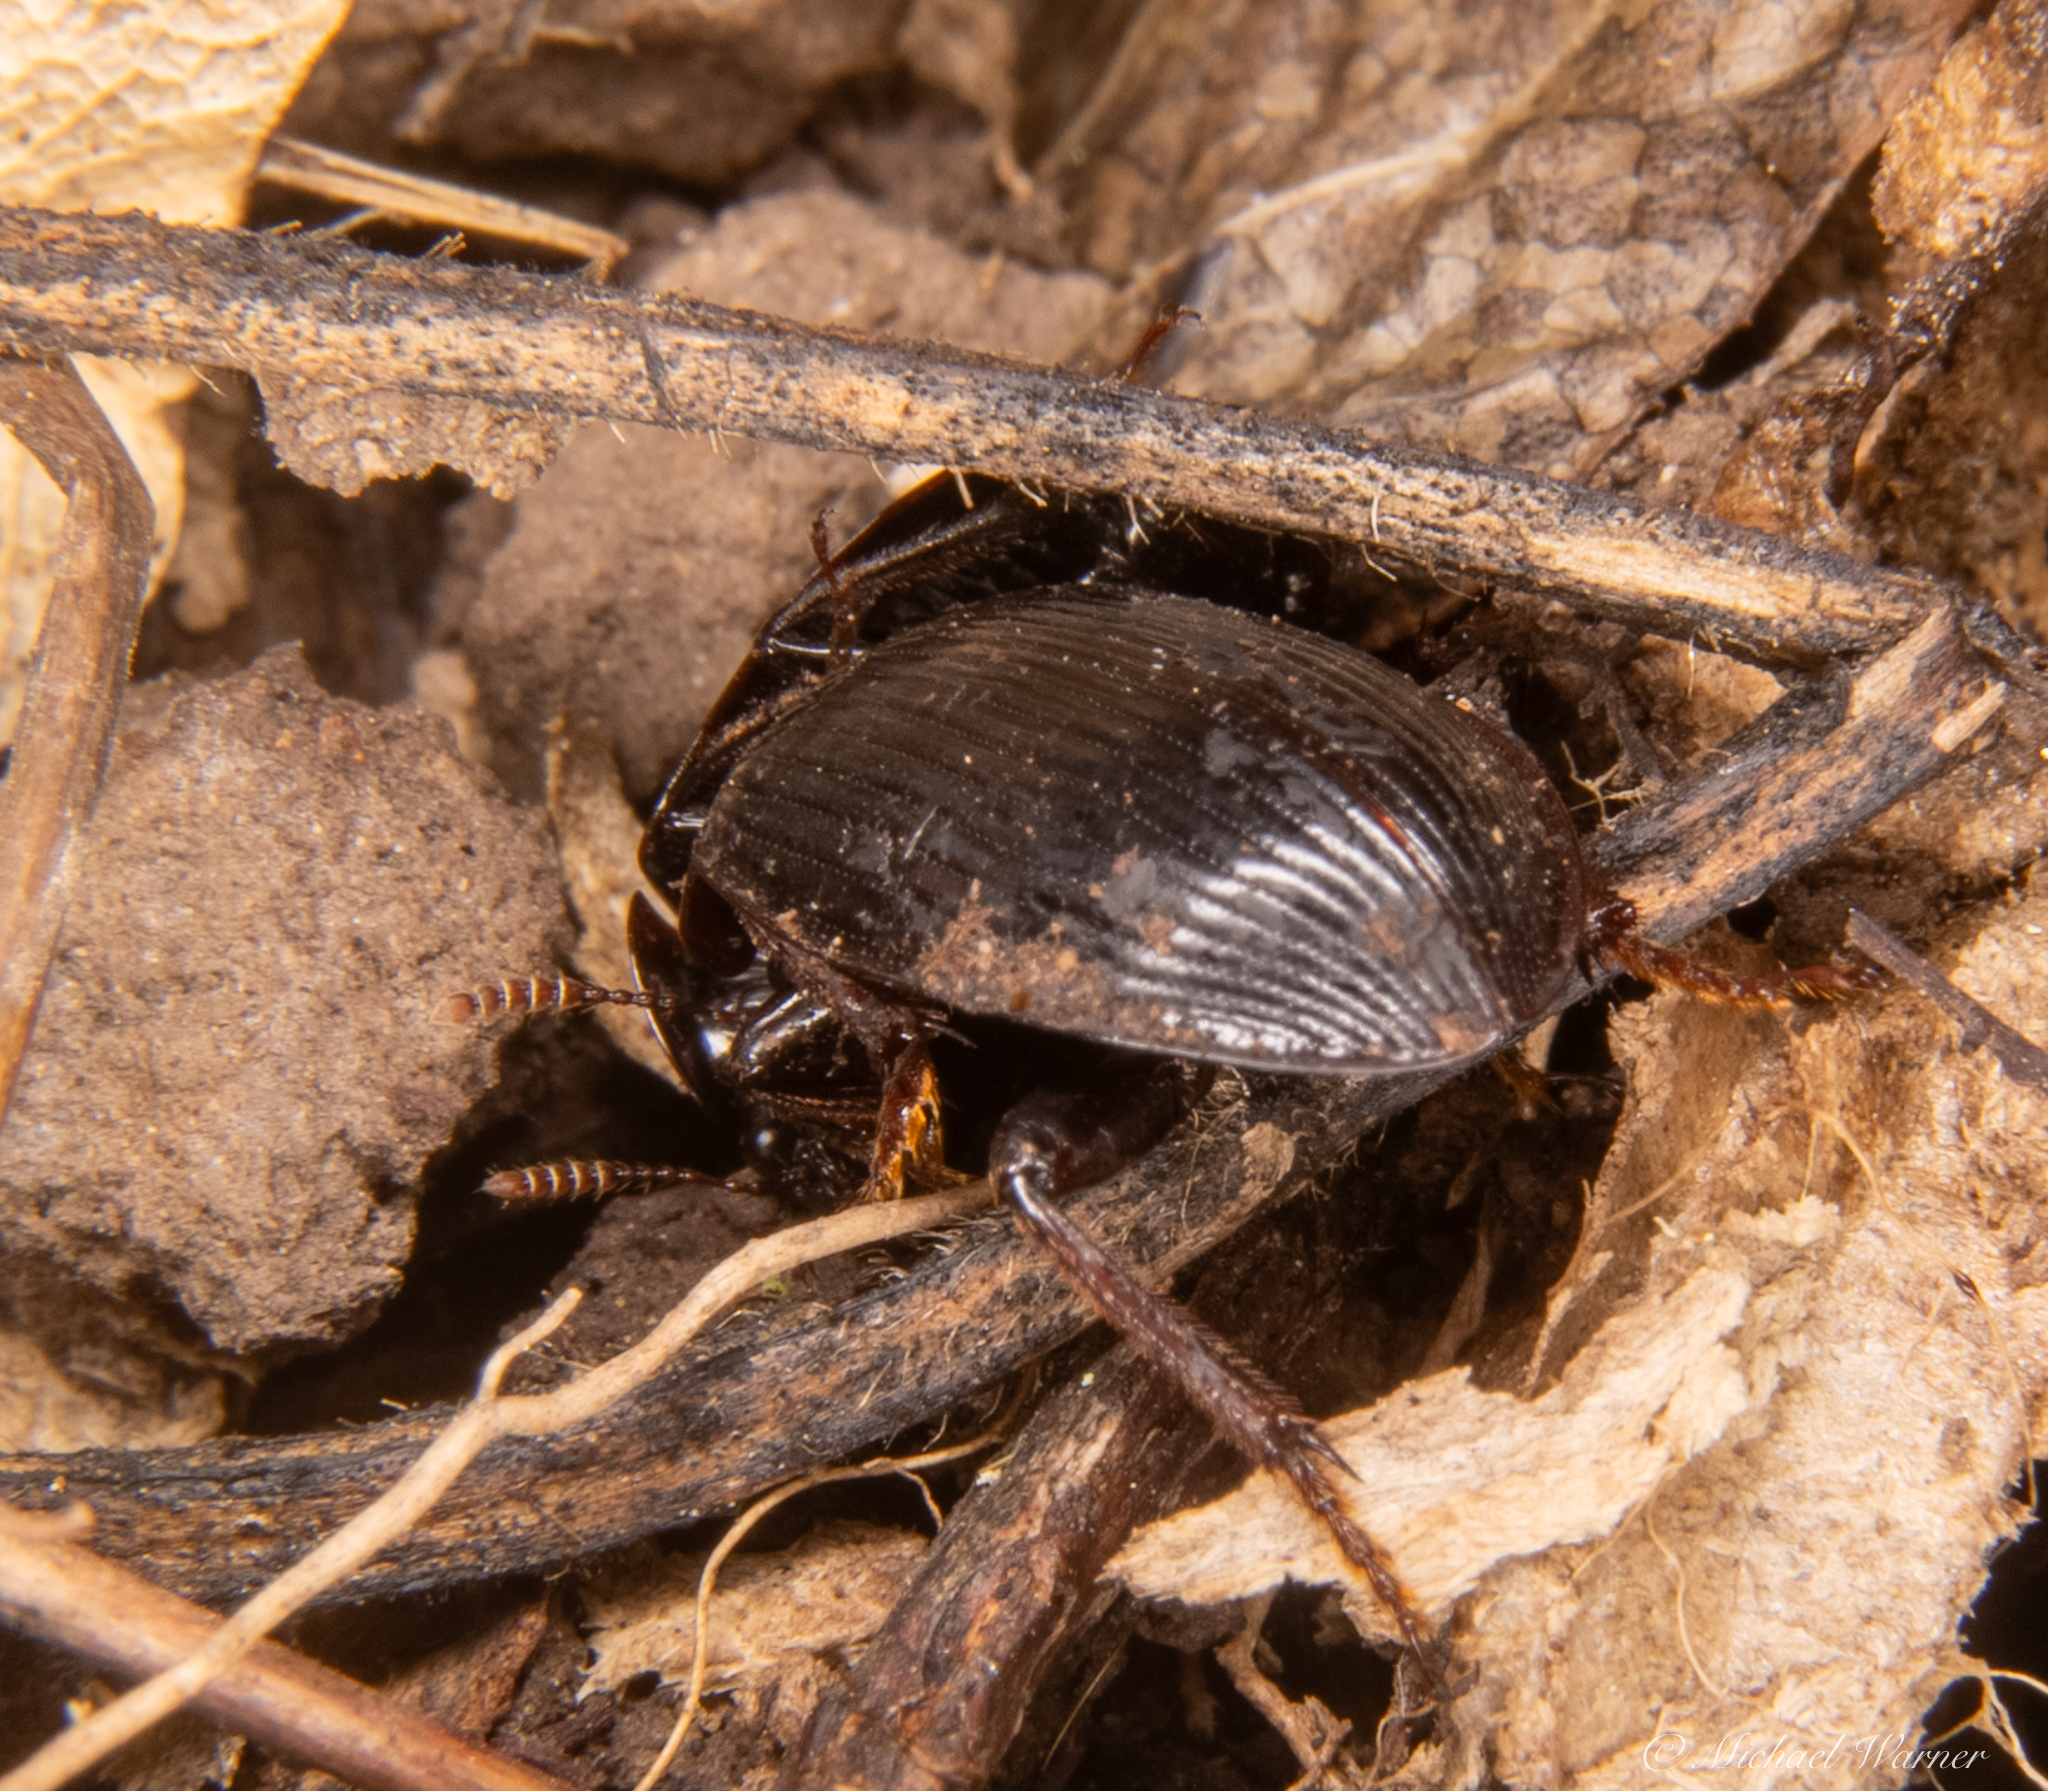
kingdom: Animalia
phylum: Arthropoda
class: Insecta
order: Coleoptera
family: Agyrtidae
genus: Necrophilus
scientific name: Necrophilus hydrophiloides
